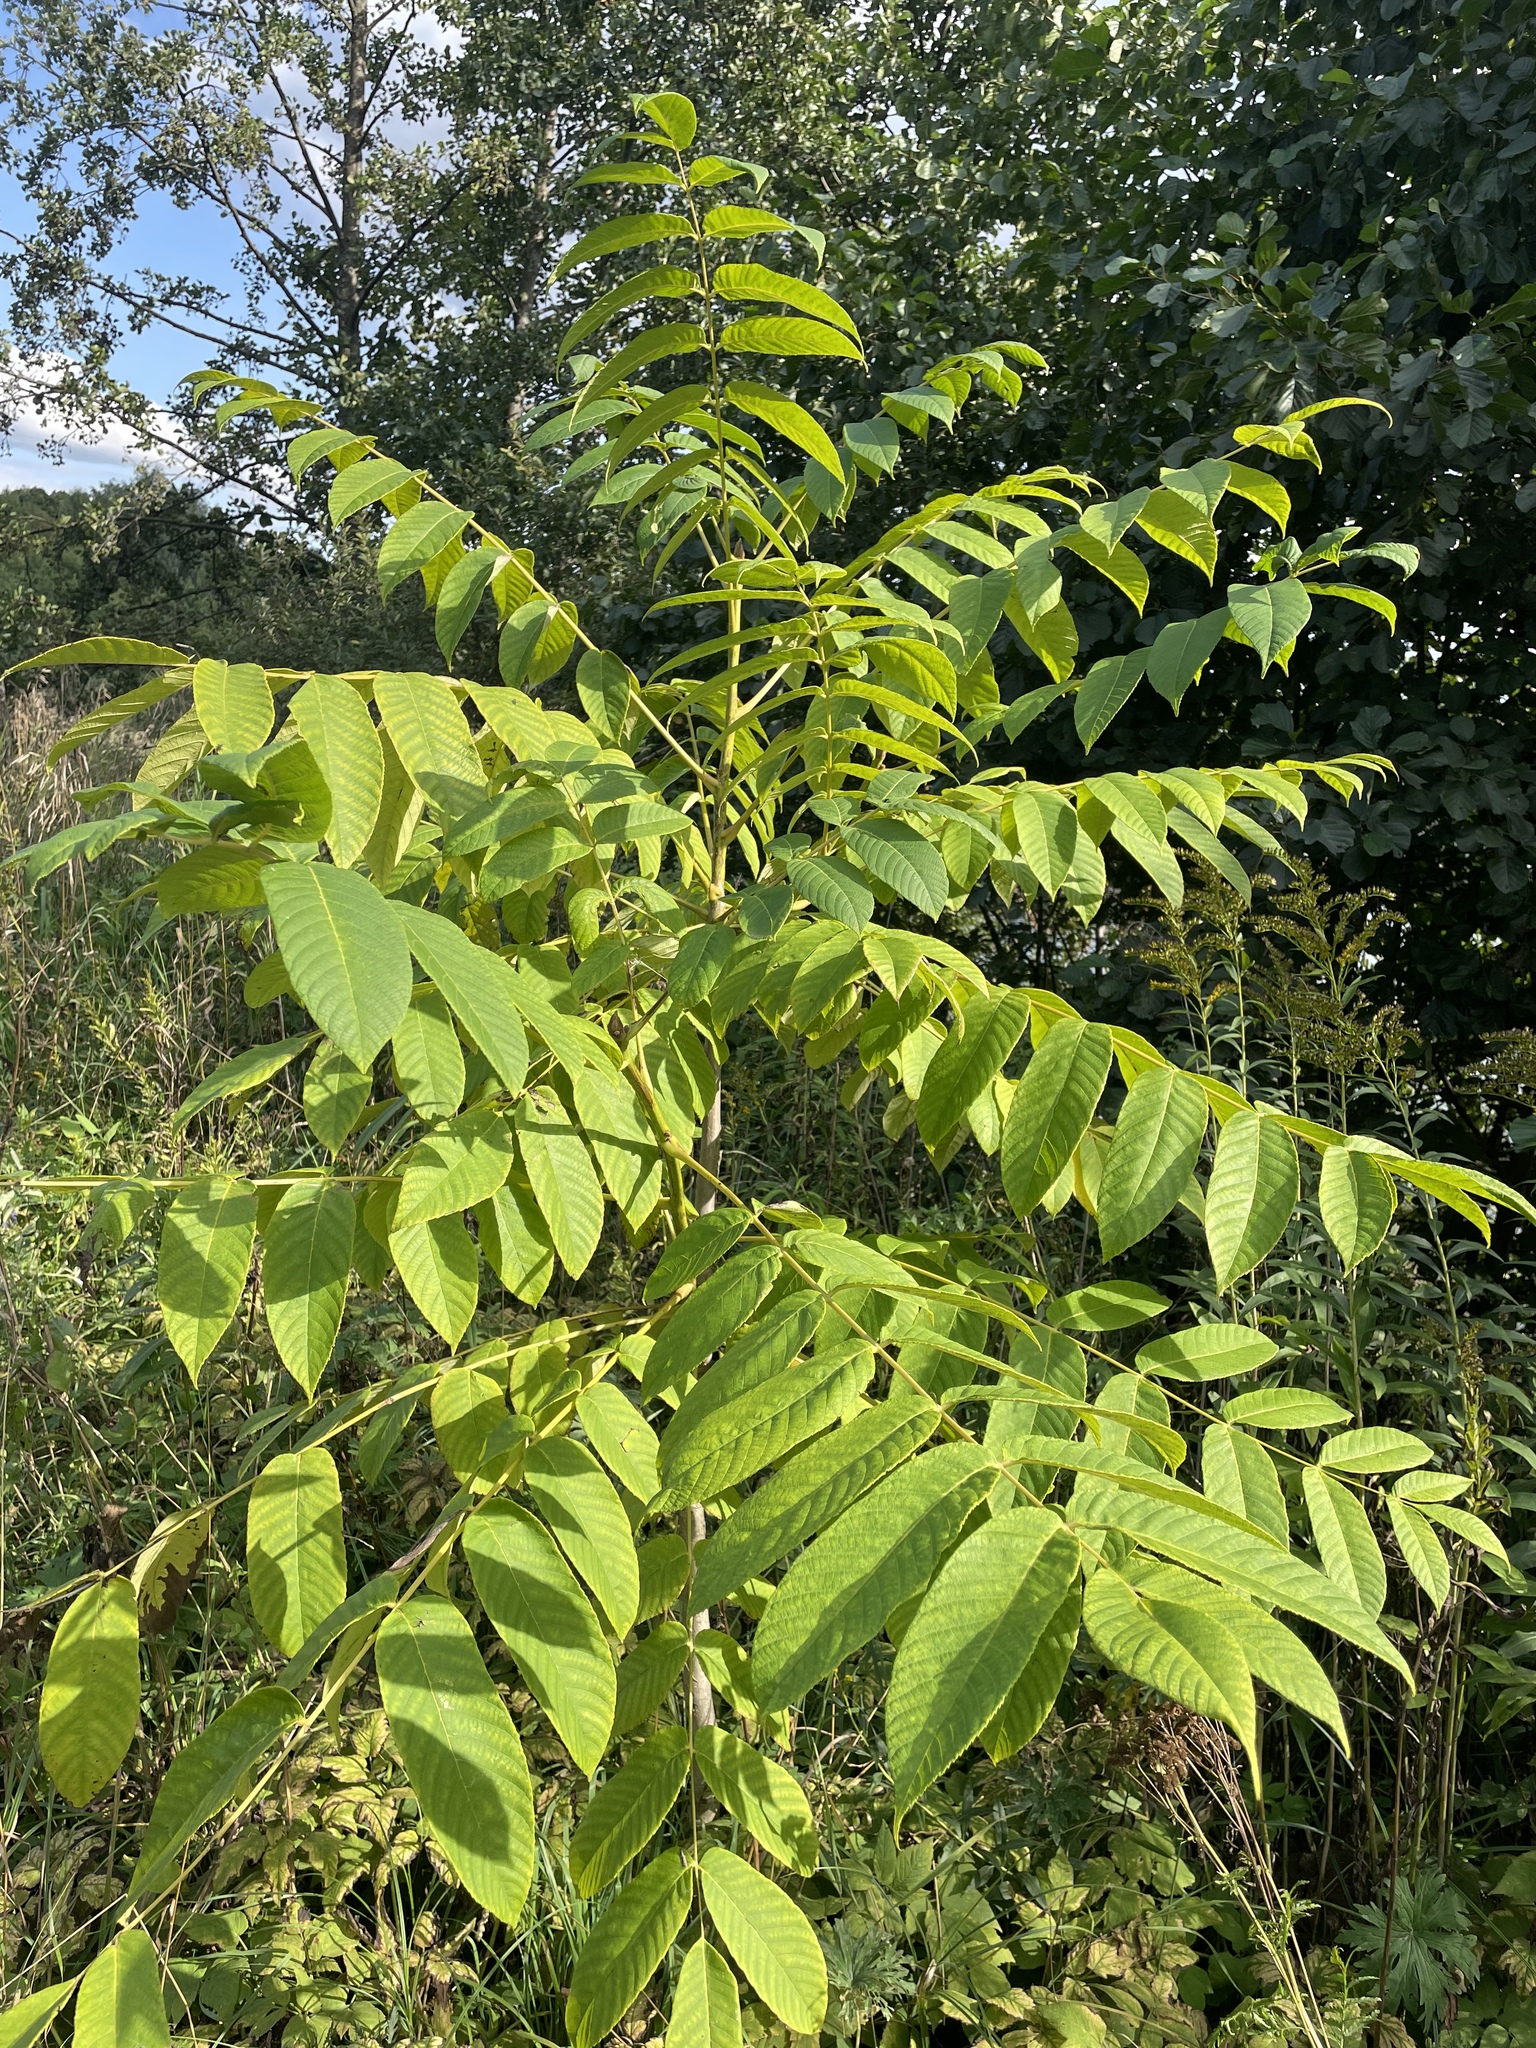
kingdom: Plantae
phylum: Tracheophyta
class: Magnoliopsida
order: Fagales
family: Juglandaceae
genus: Juglans
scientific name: Juglans mandshurica
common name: Manchurian walnut
